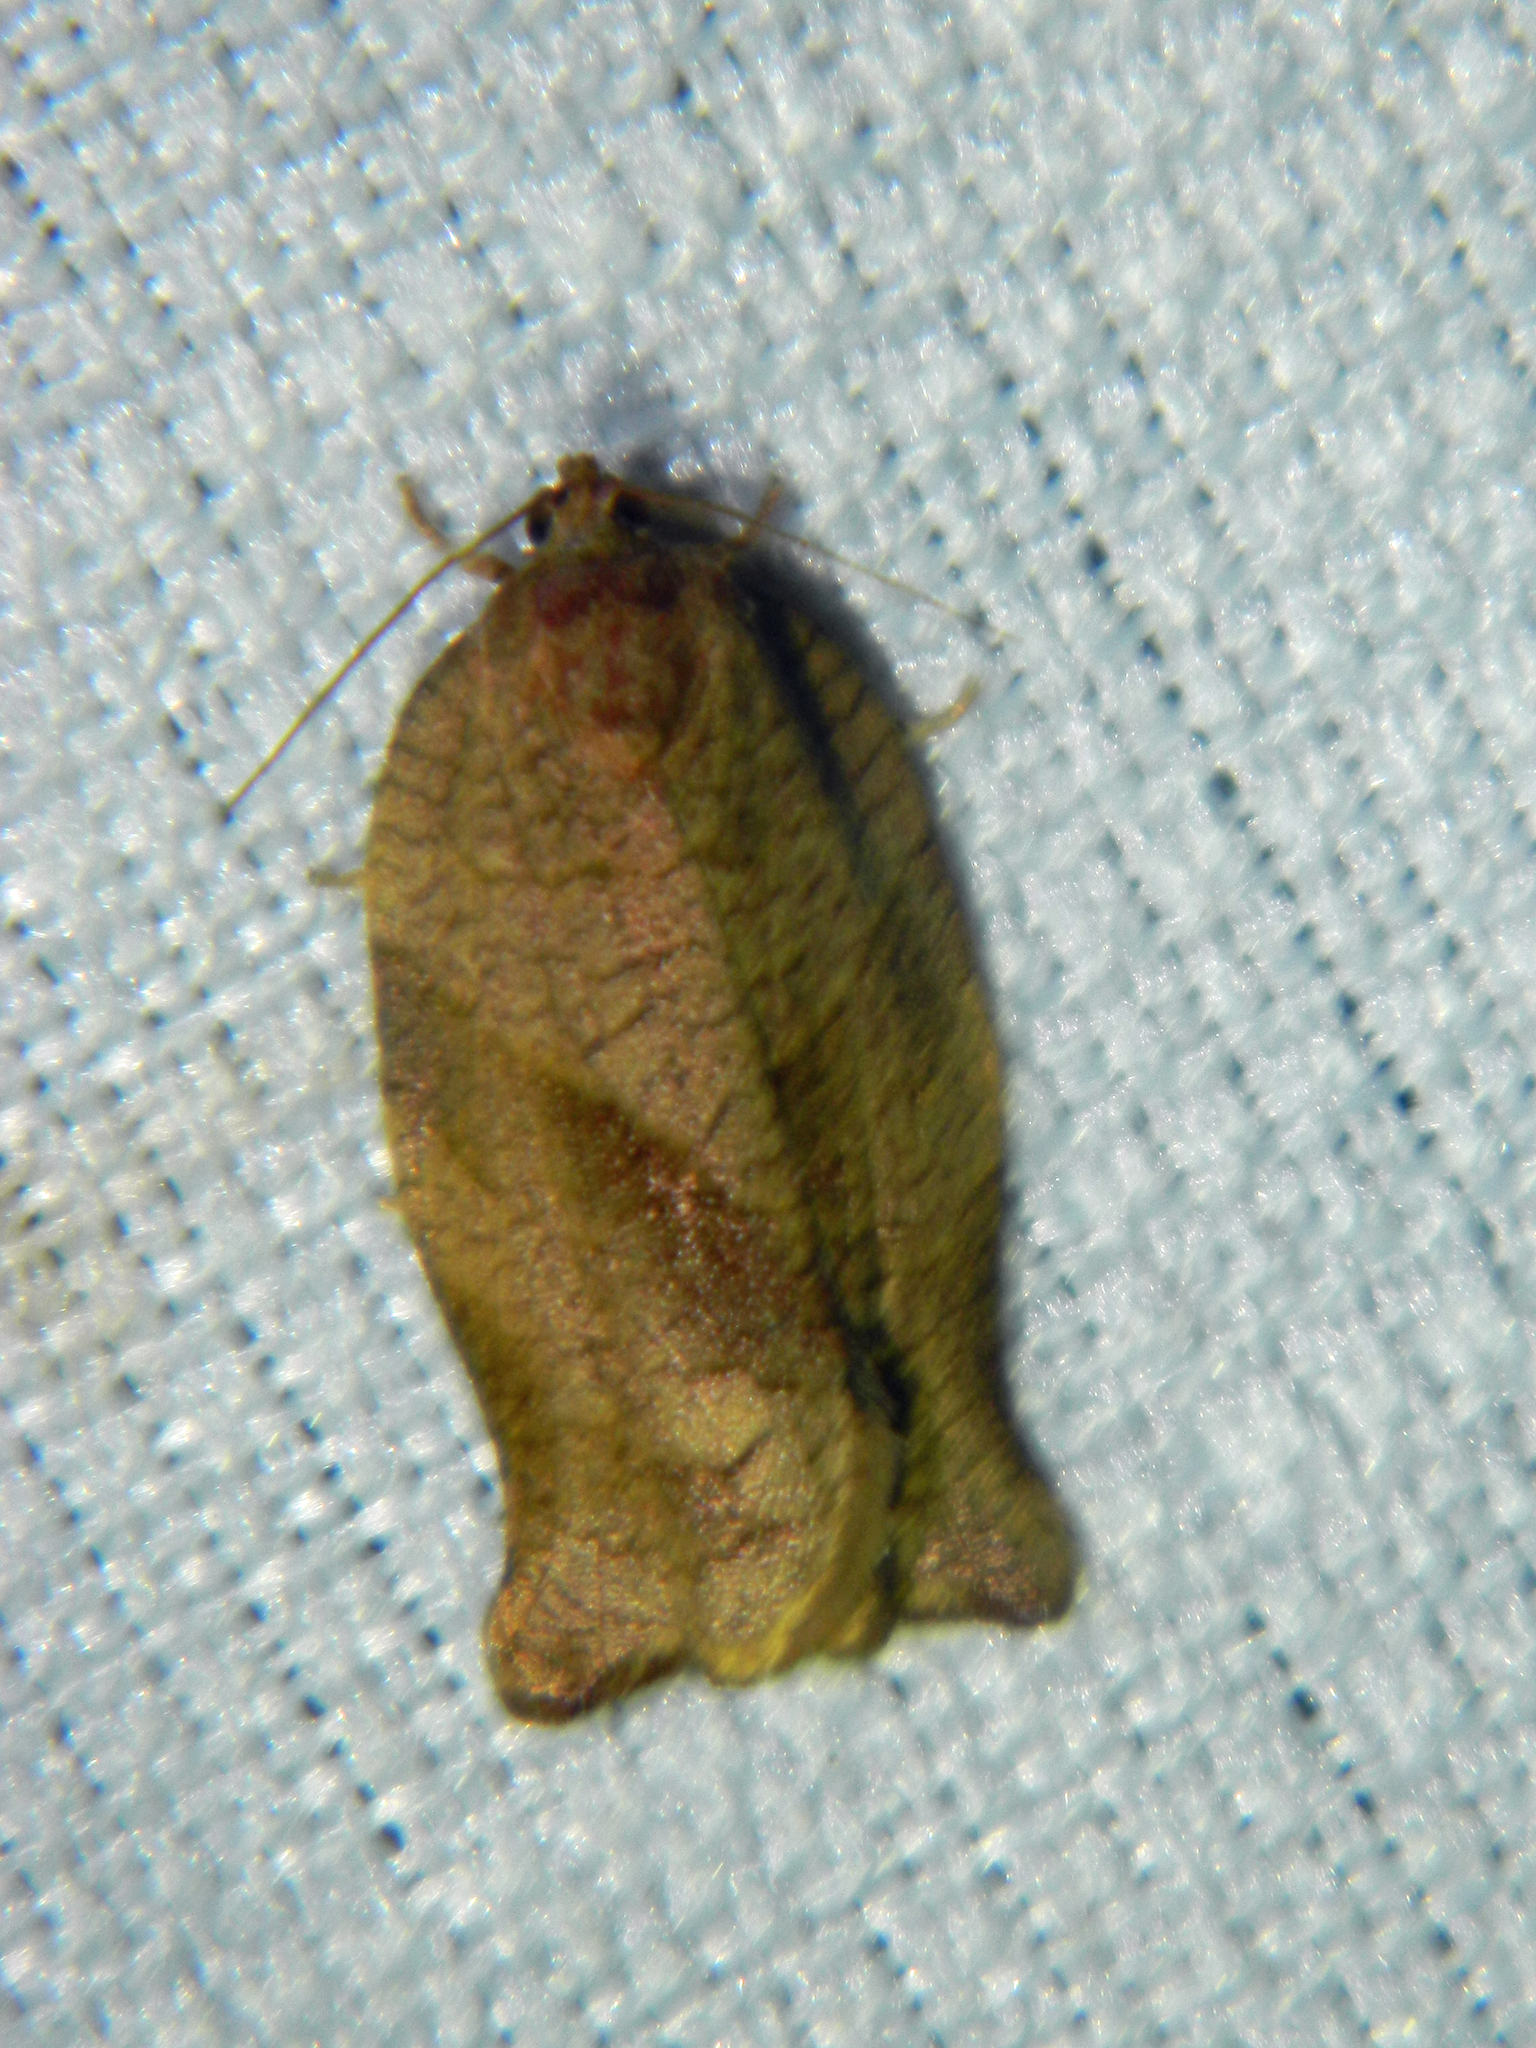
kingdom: Animalia
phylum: Arthropoda
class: Insecta
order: Lepidoptera
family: Tortricidae
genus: Choristoneura
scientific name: Choristoneura rosaceana
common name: Oblique-banded leafroller moth
